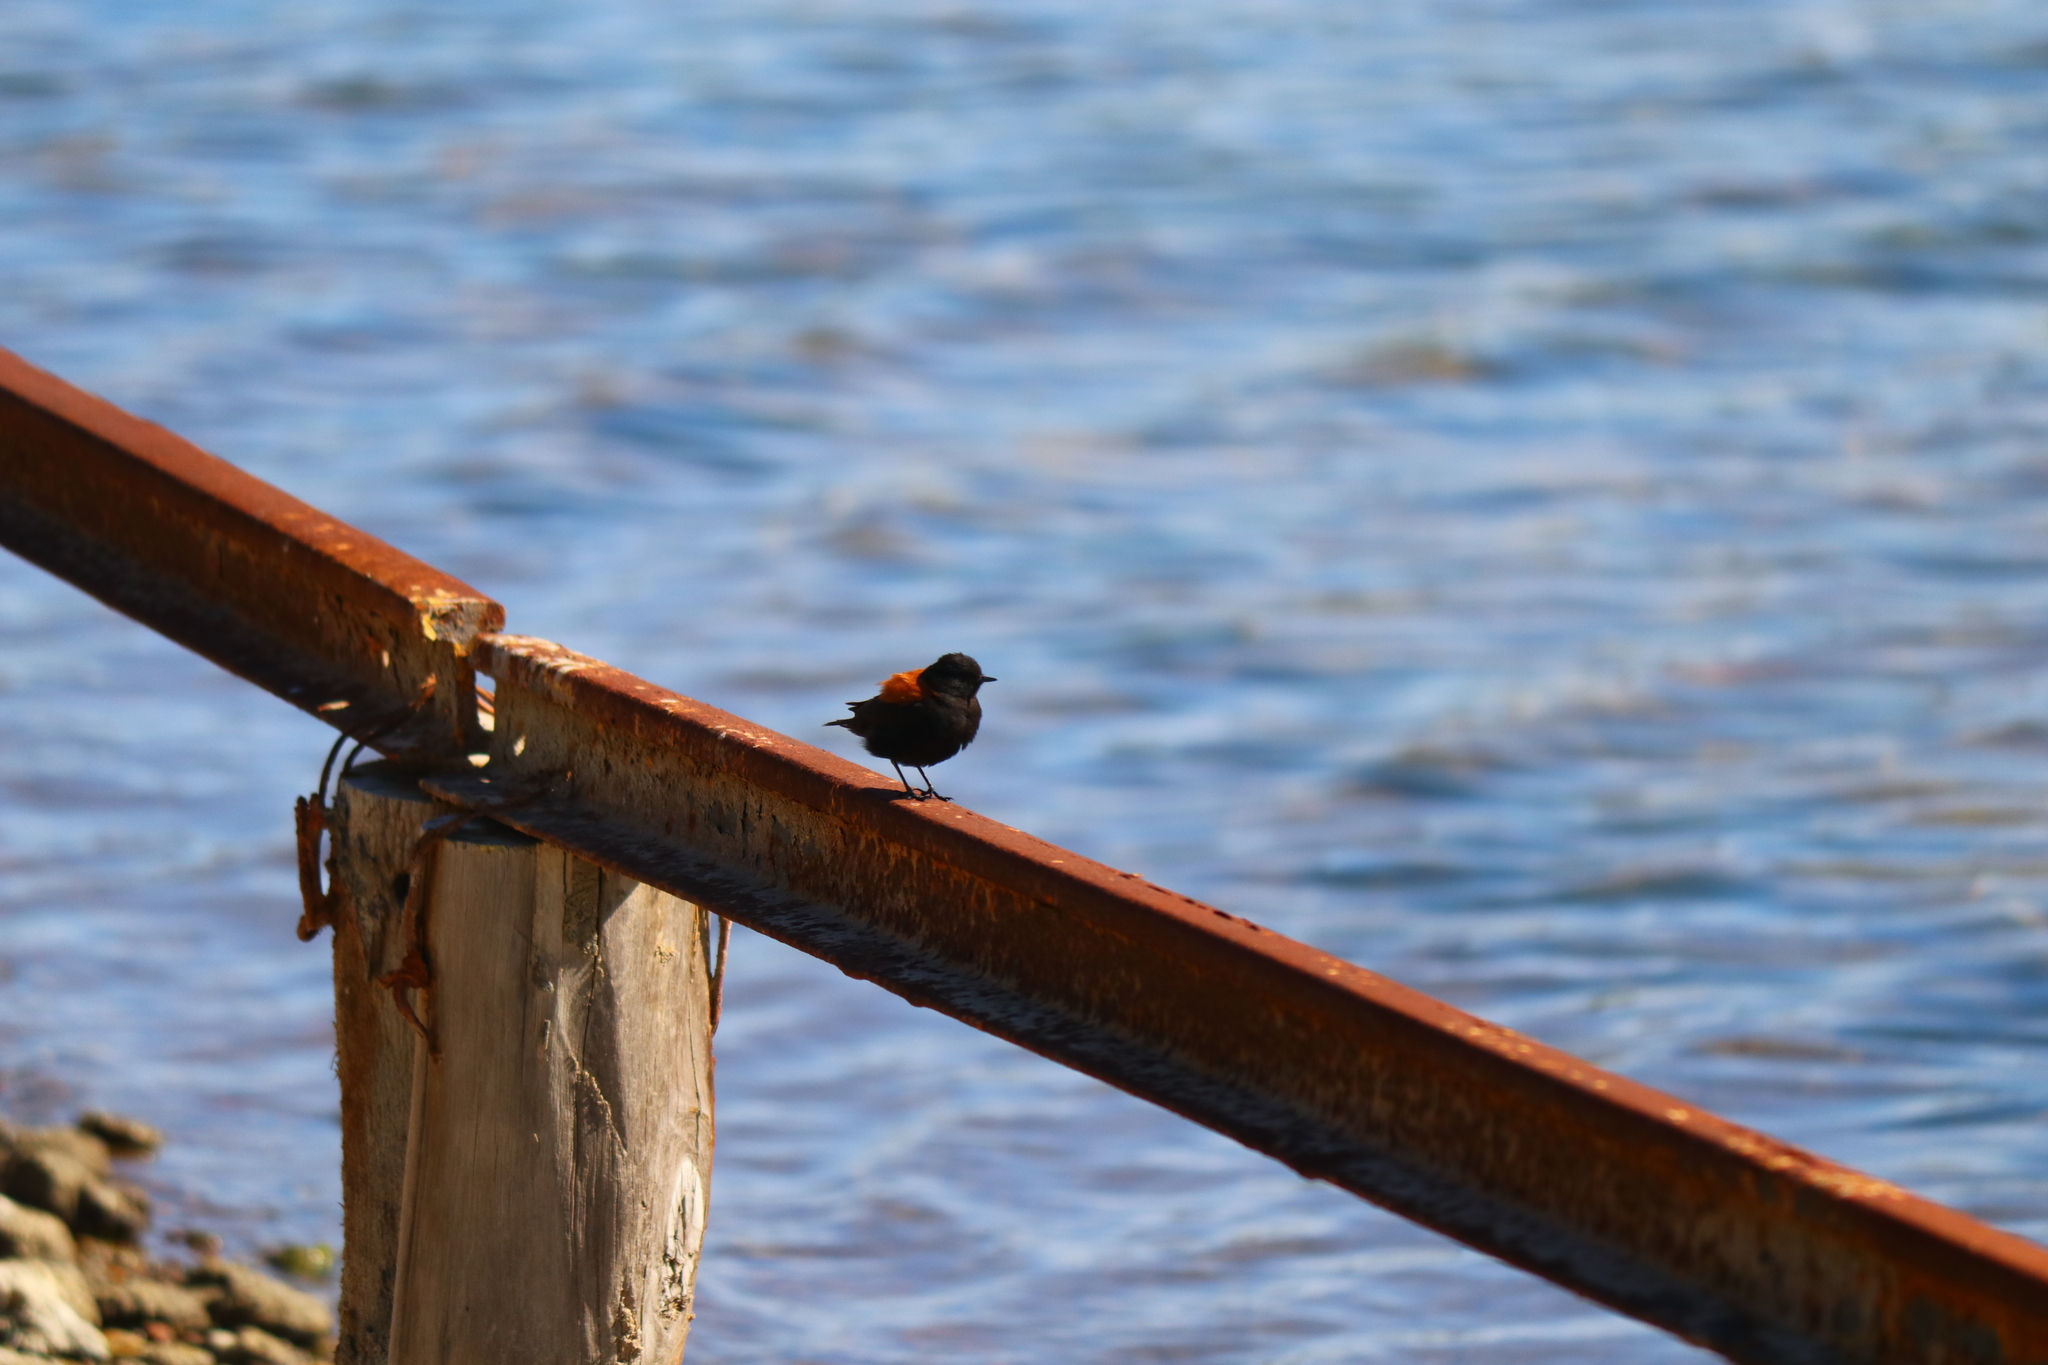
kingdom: Animalia
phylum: Chordata
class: Aves
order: Passeriformes
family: Tyrannidae
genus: Lessonia
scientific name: Lessonia rufa
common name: Austral negrito
